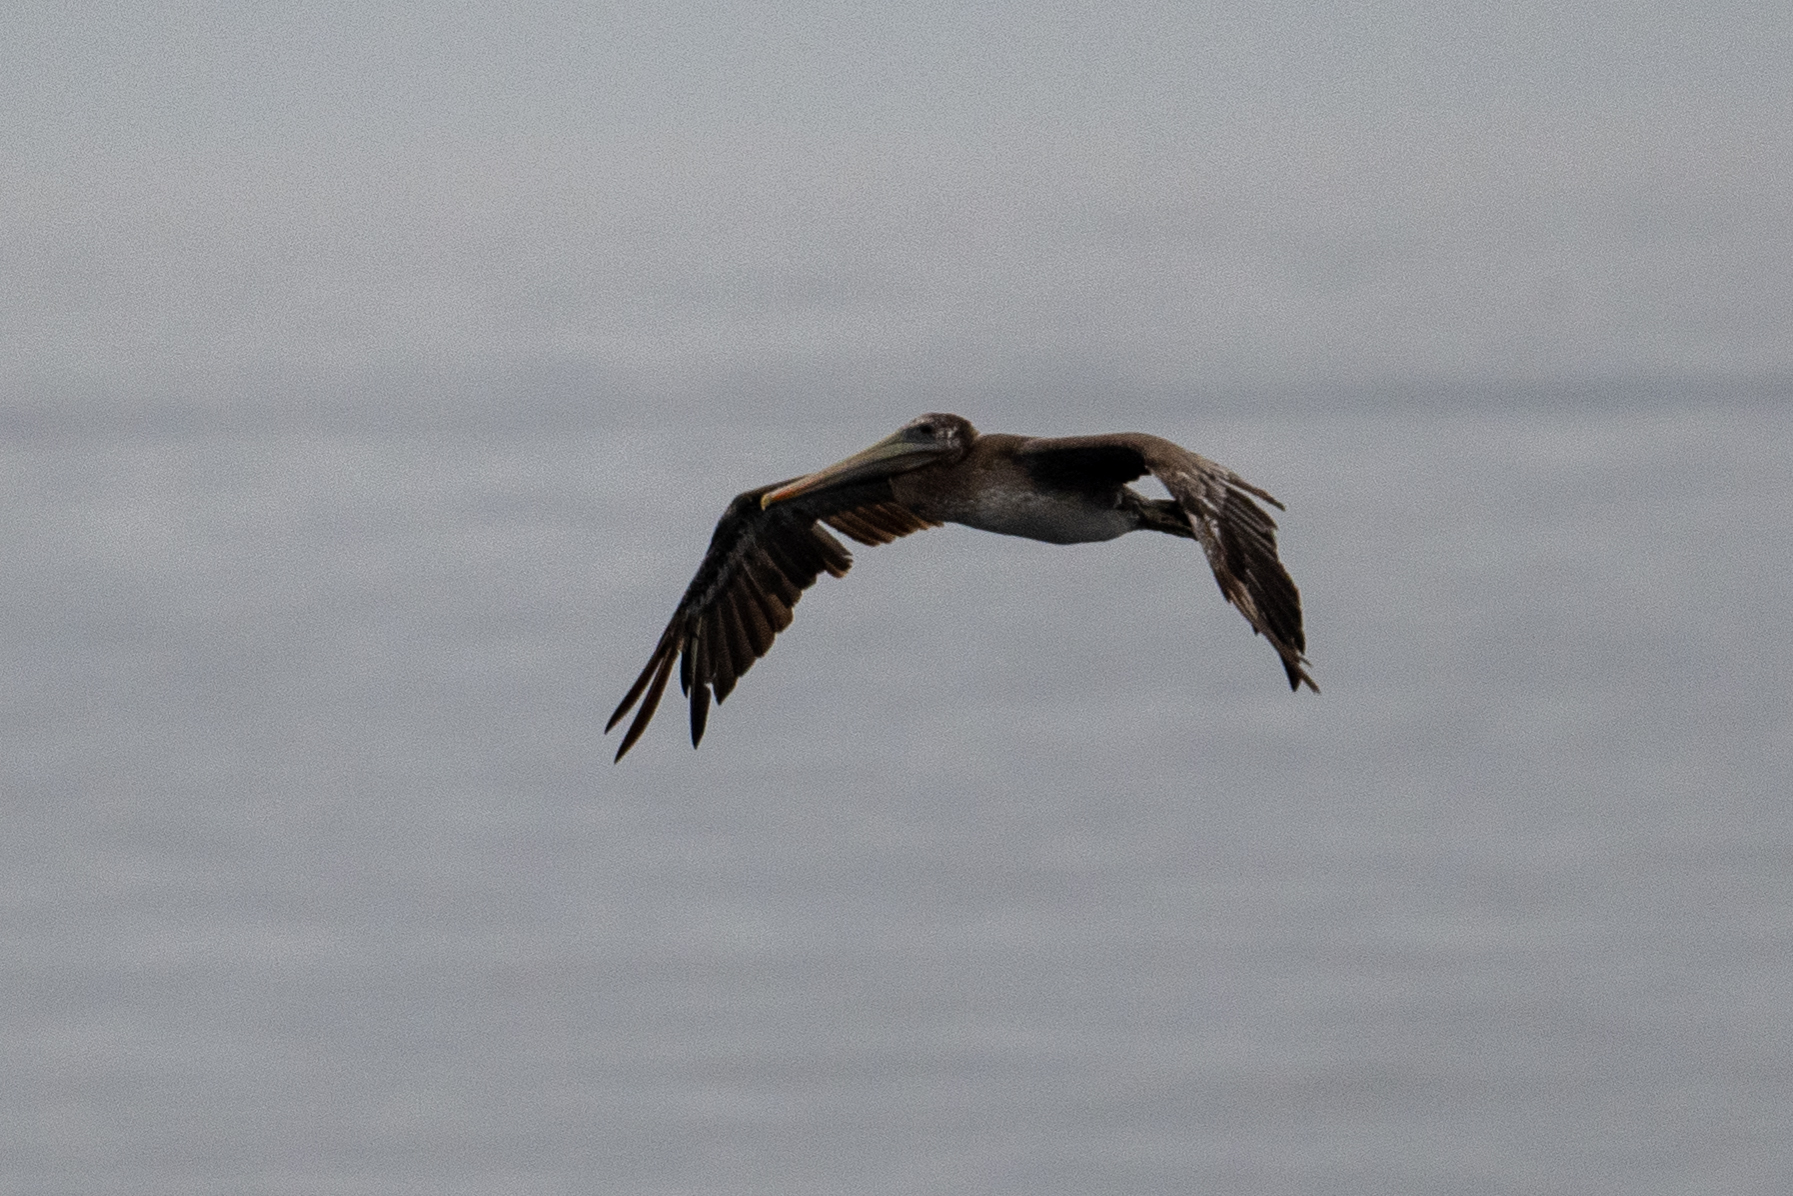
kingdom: Animalia
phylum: Chordata
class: Aves
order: Pelecaniformes
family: Pelecanidae
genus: Pelecanus
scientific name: Pelecanus occidentalis
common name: Brown pelican
